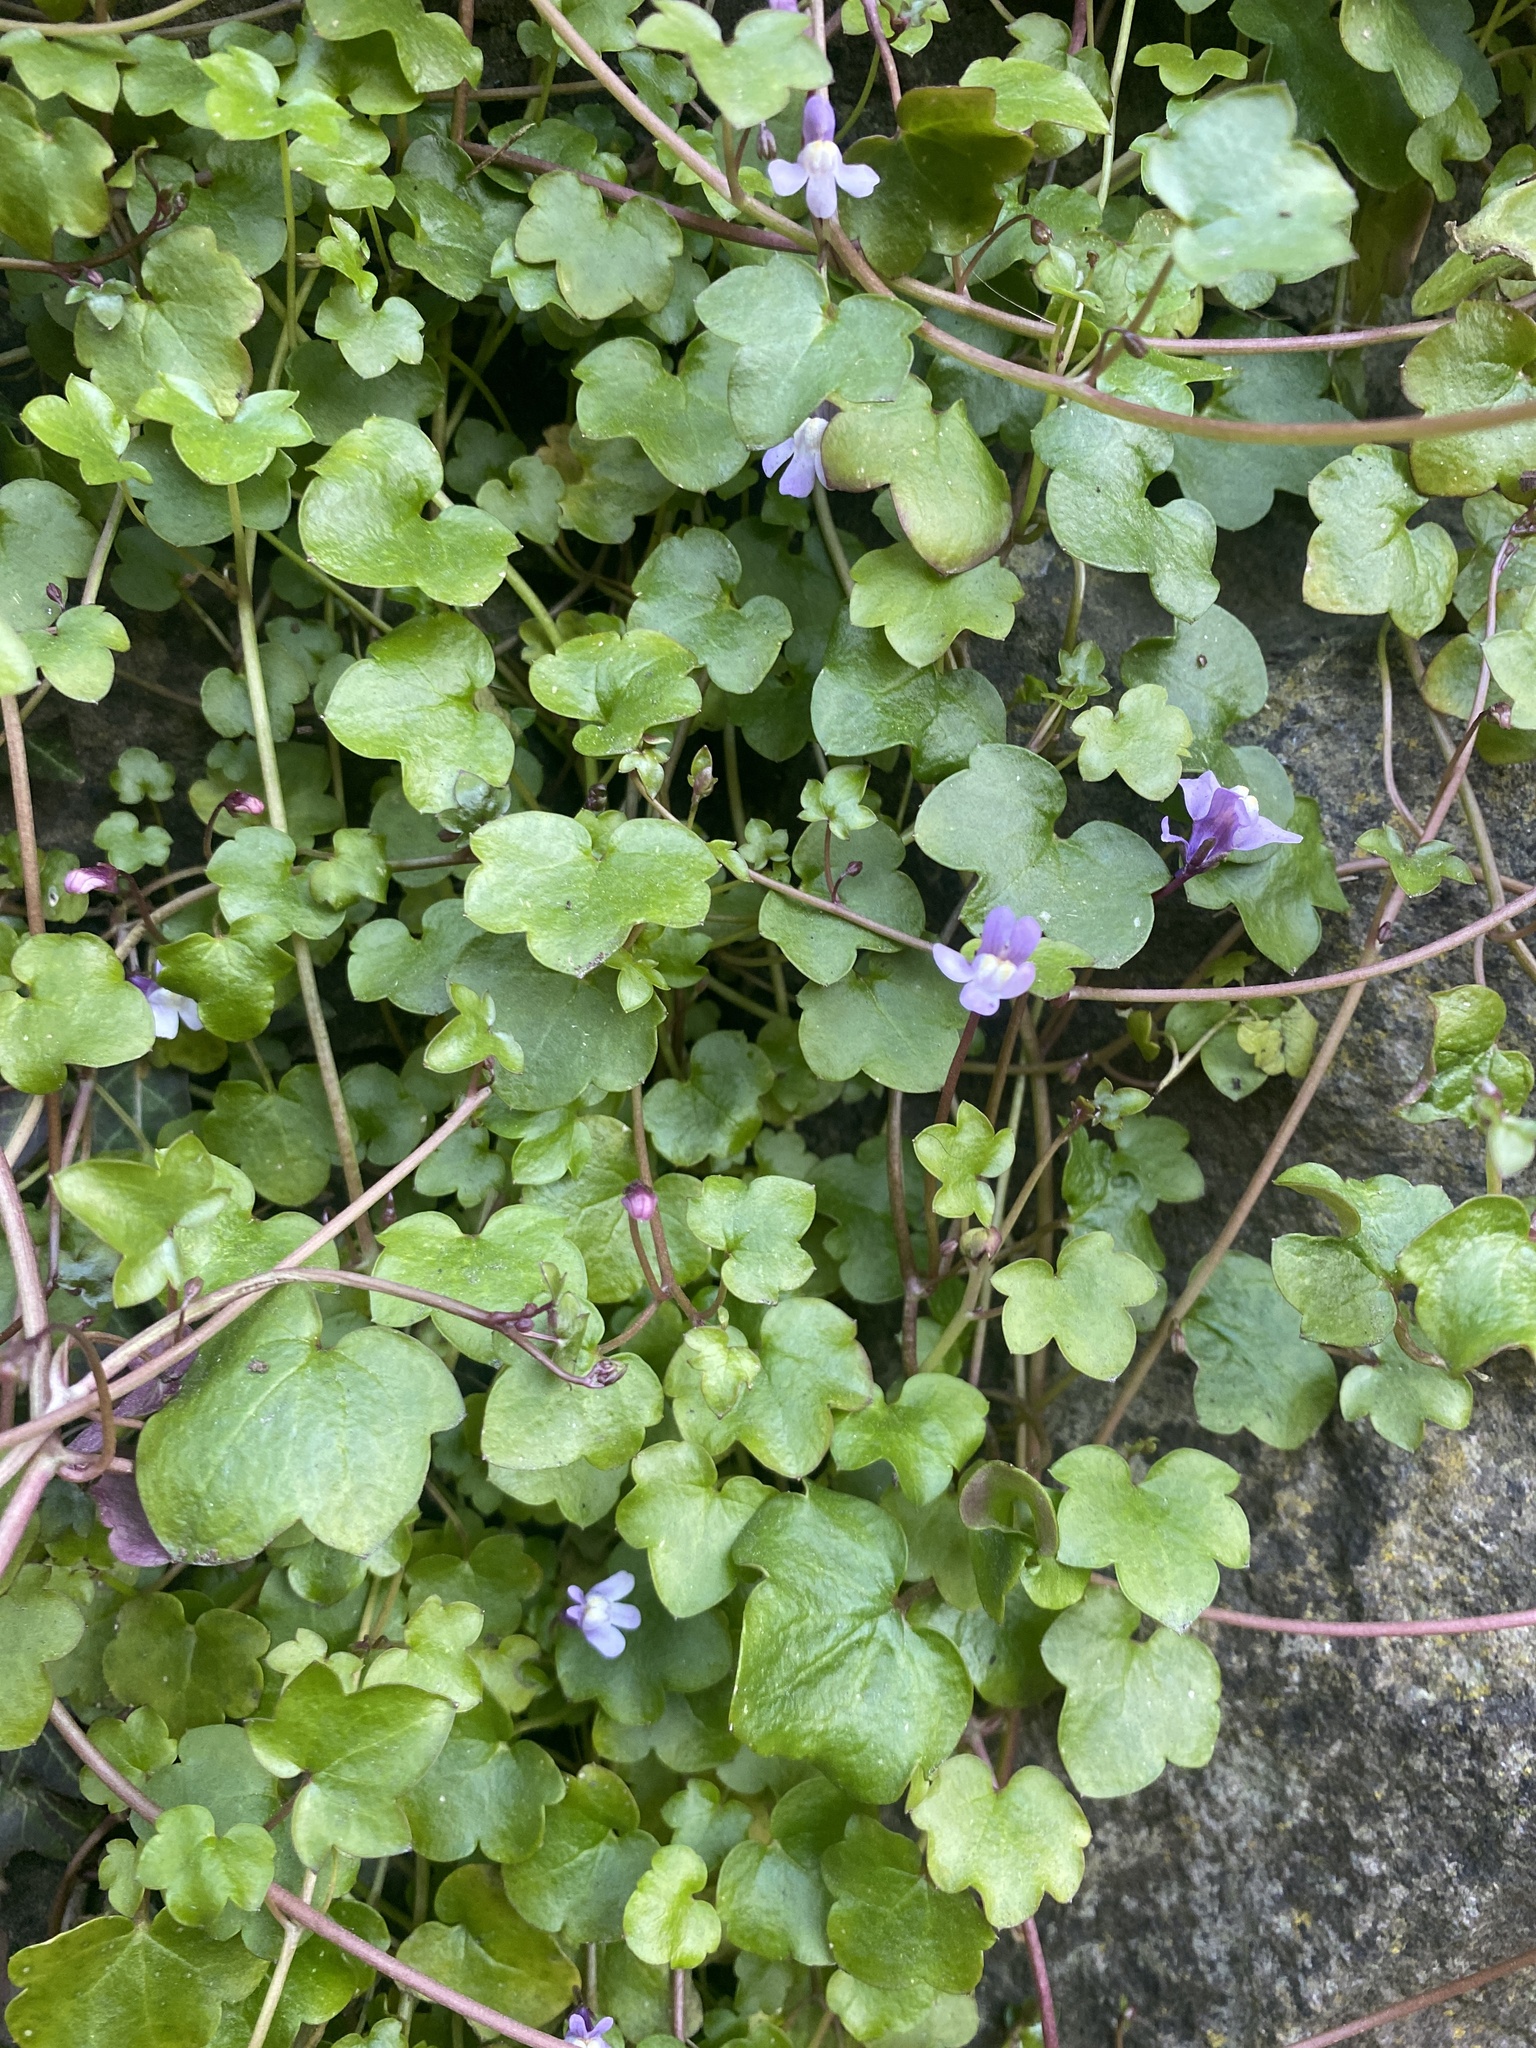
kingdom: Plantae
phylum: Tracheophyta
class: Magnoliopsida
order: Lamiales
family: Plantaginaceae
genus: Cymbalaria
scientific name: Cymbalaria muralis
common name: Ivy-leaved toadflax
